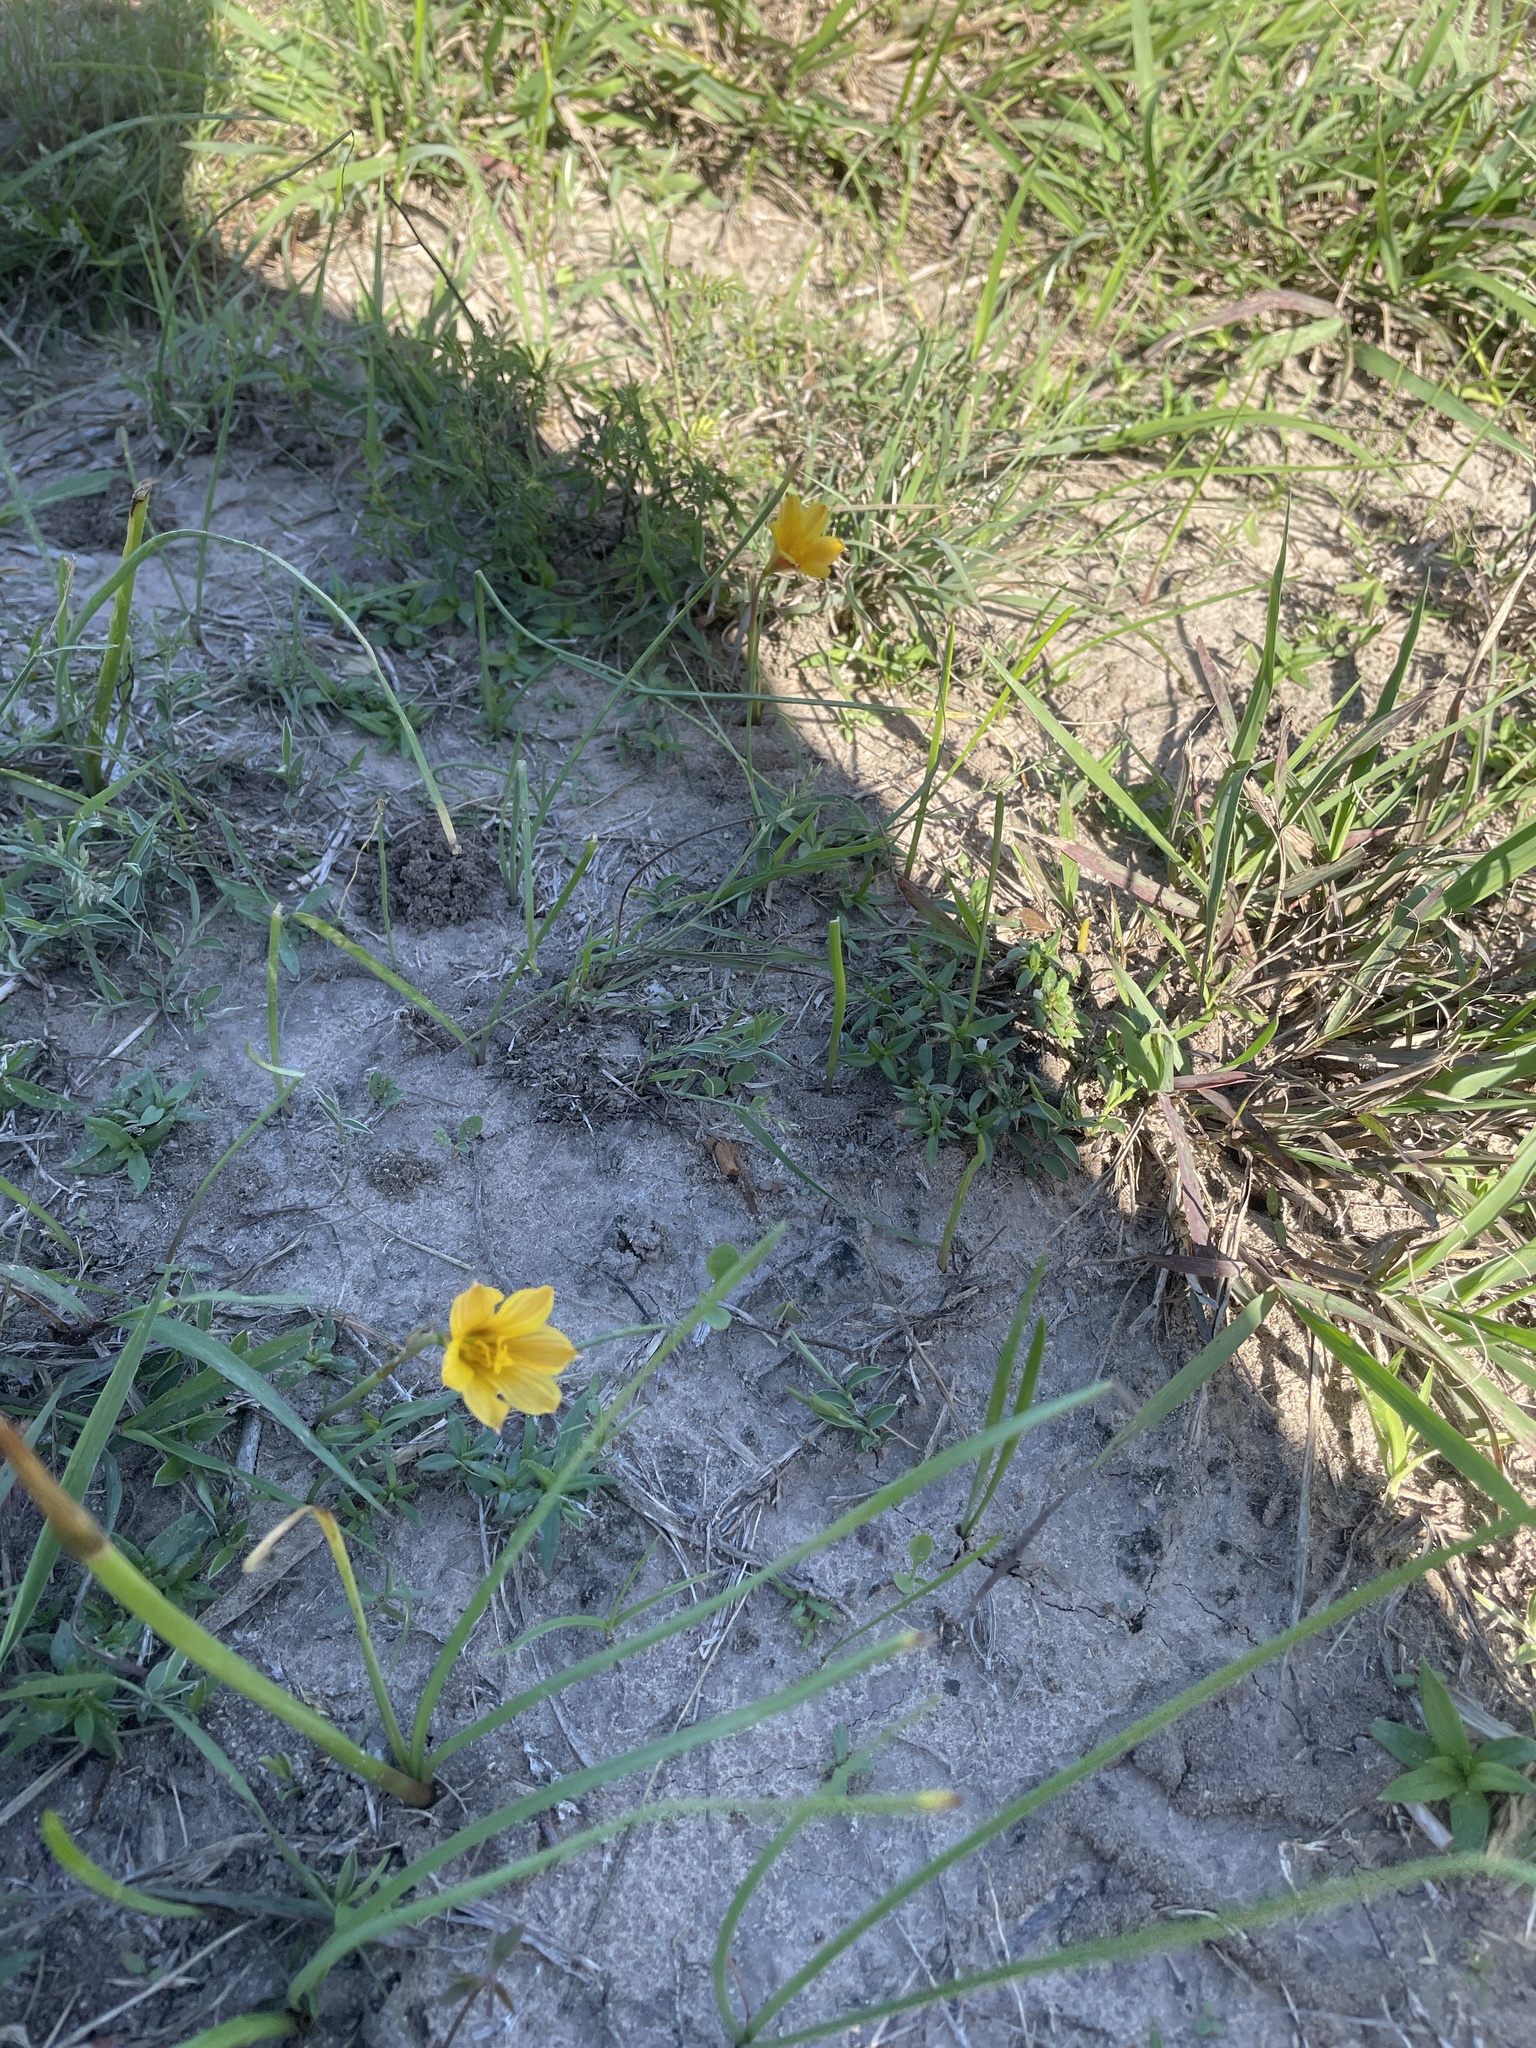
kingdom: Plantae
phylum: Tracheophyta
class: Liliopsida
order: Asparagales
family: Amaryllidaceae
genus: Zephyranthes
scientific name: Zephyranthes tubispatha
